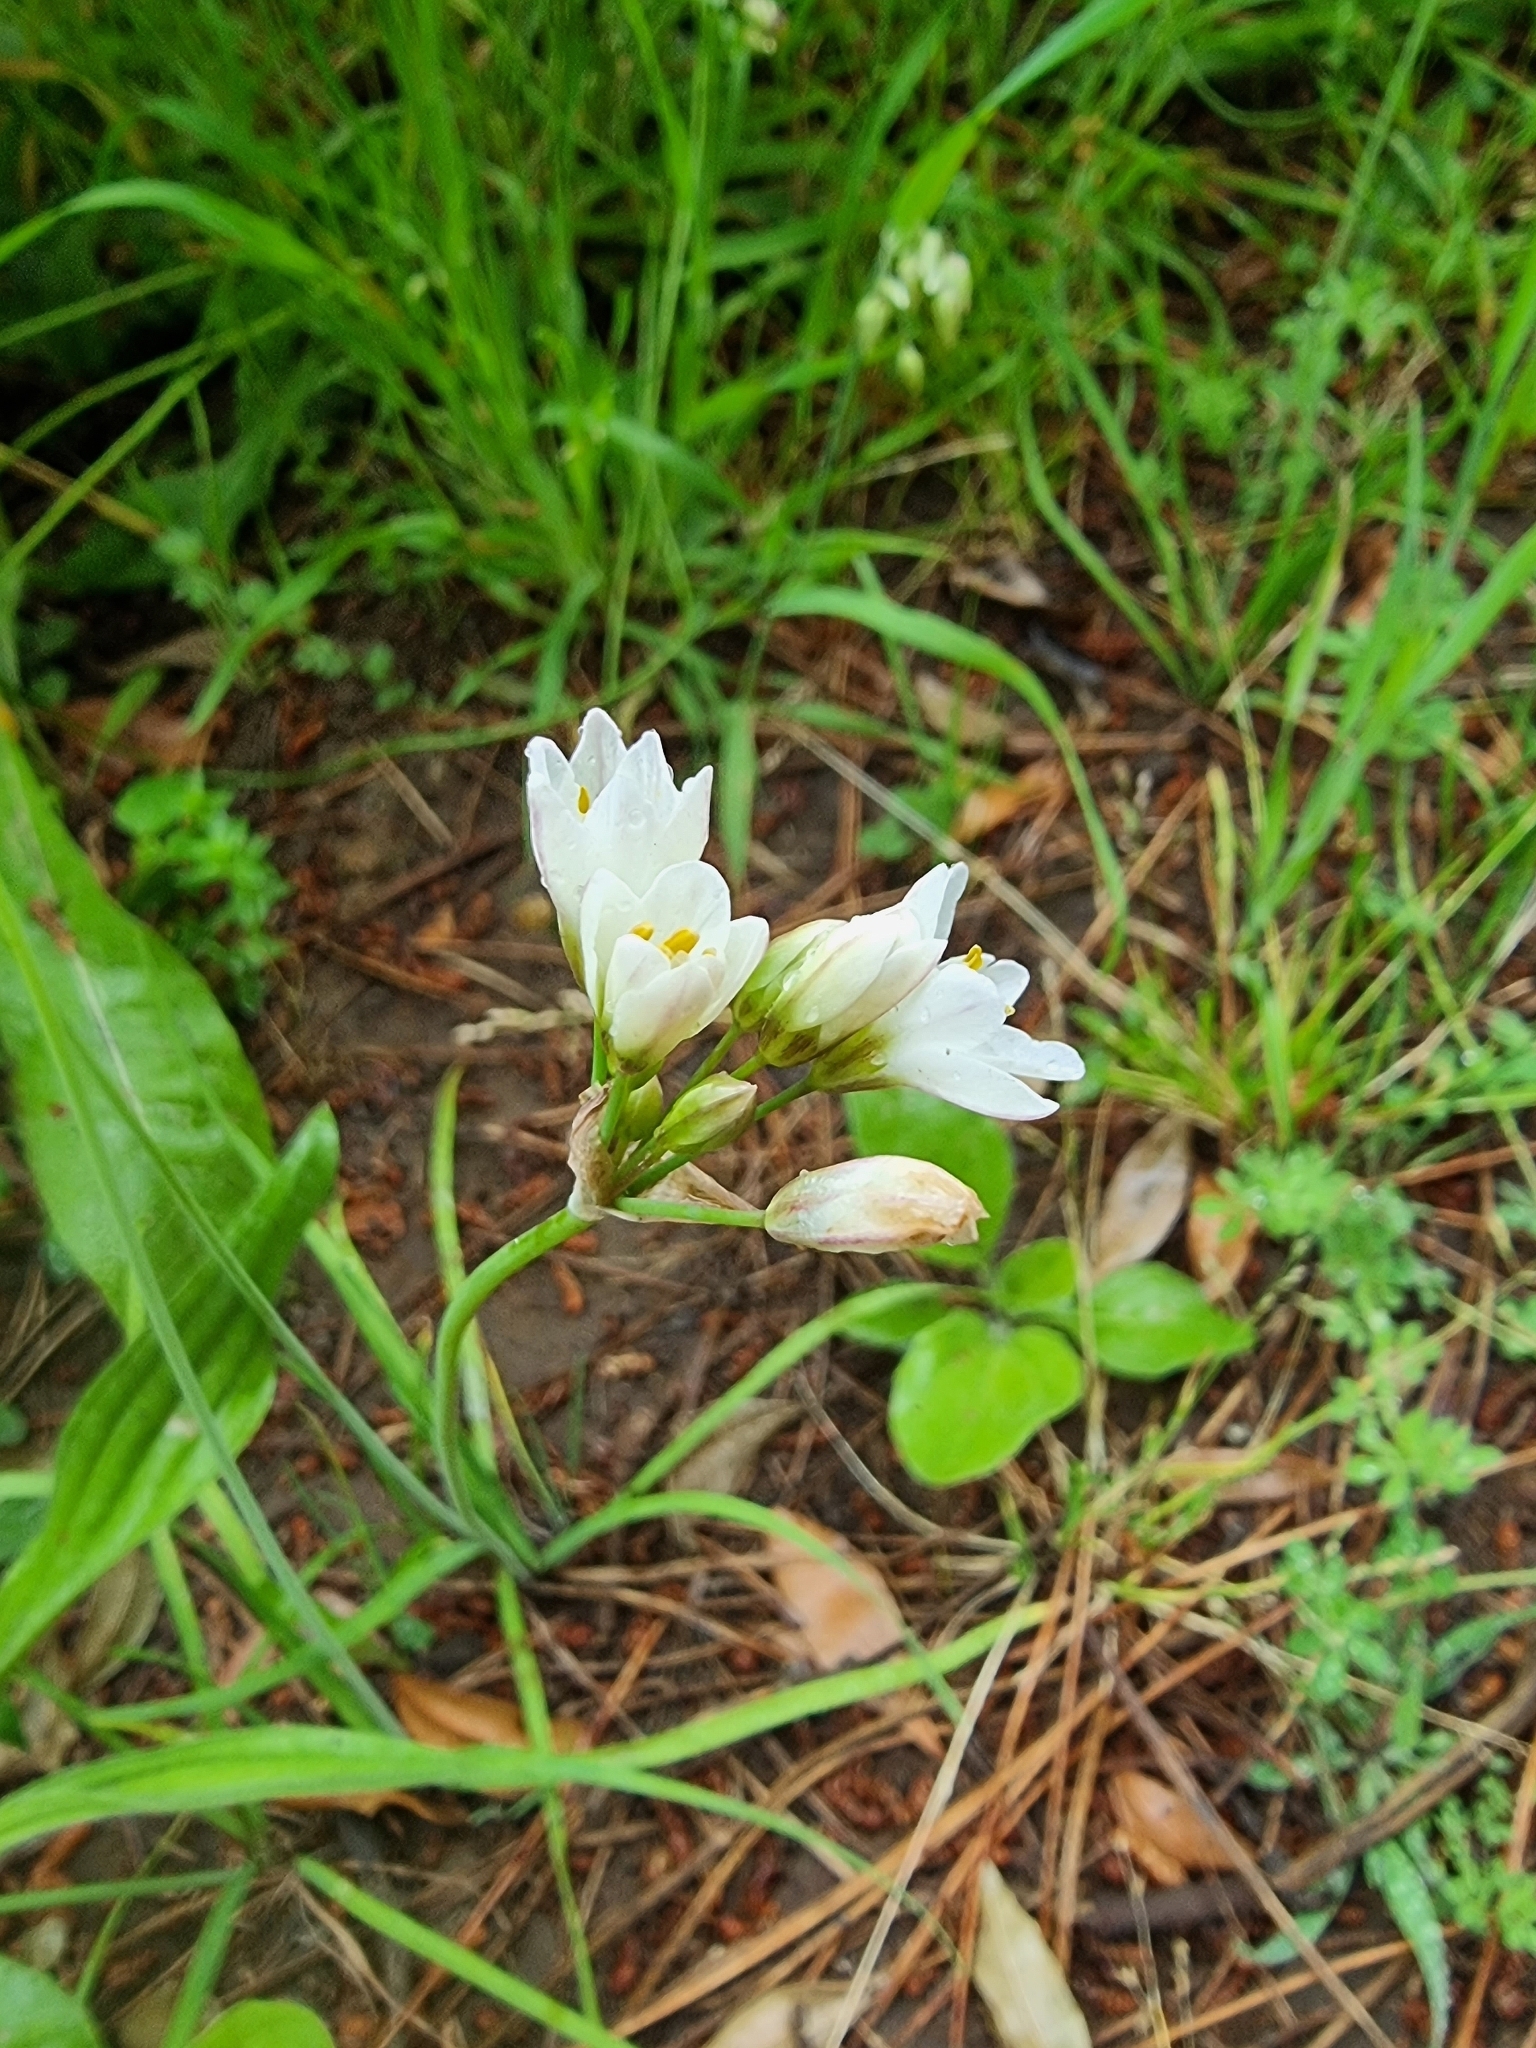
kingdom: Plantae
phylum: Tracheophyta
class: Liliopsida
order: Asparagales
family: Amaryllidaceae
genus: Allium
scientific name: Allium triquetrum
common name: Three-cornered garlic
